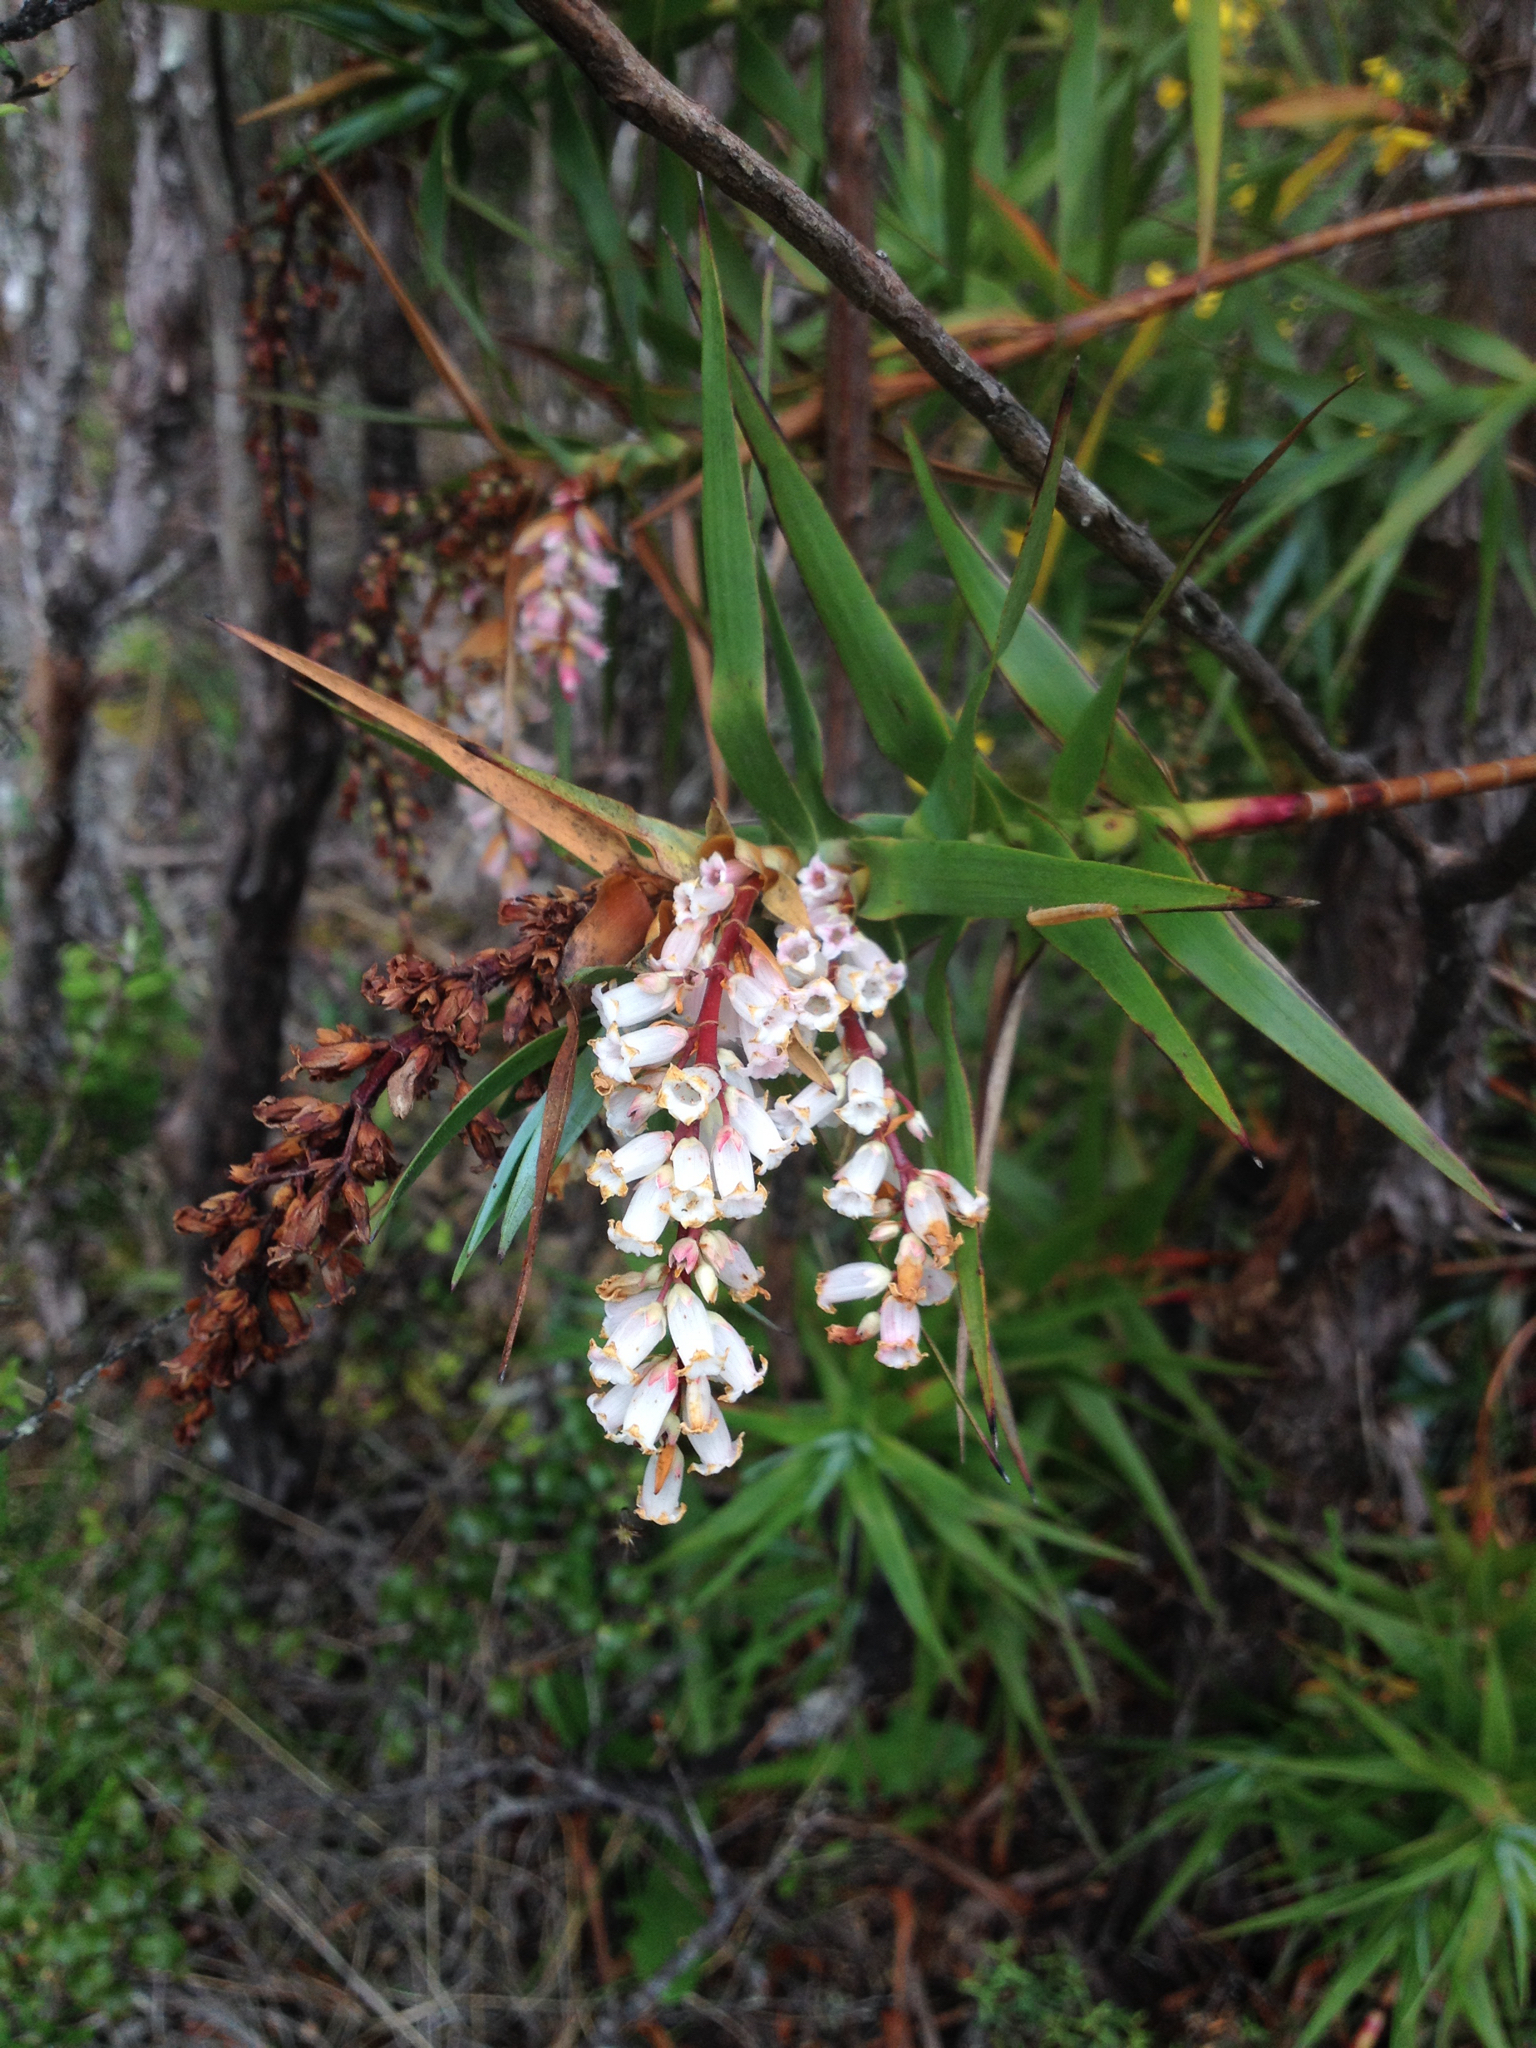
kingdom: Plantae
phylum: Tracheophyta
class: Magnoliopsida
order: Ericales
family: Ericaceae
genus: Dracophyllum
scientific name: Dracophyllum strictum
